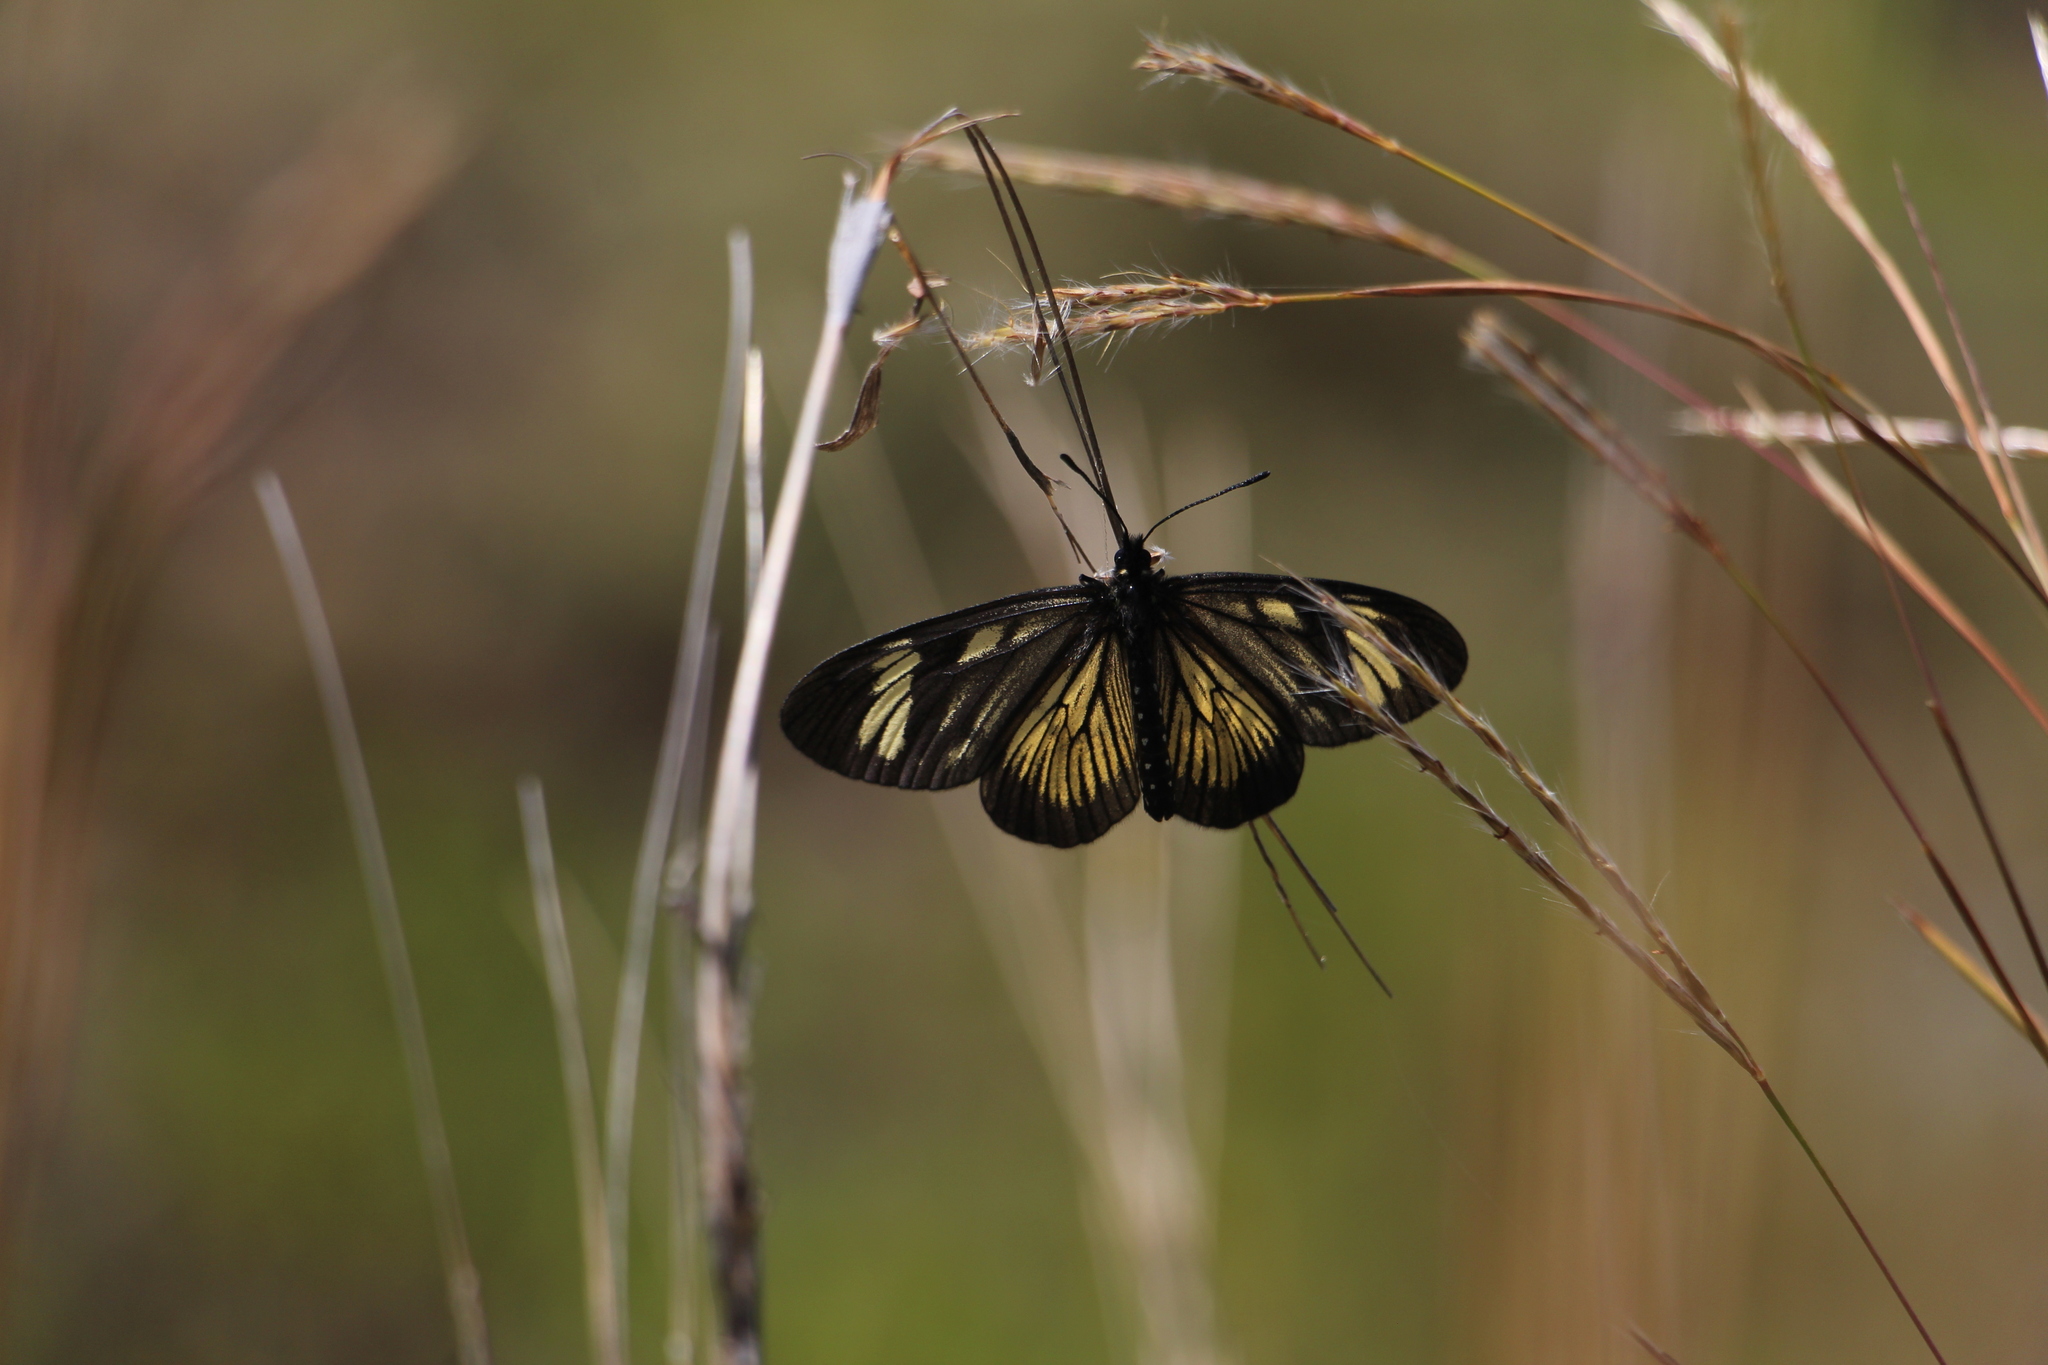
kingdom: Animalia
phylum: Arthropoda
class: Insecta
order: Lepidoptera
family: Nymphalidae
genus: Actinote
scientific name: Actinote anteas
